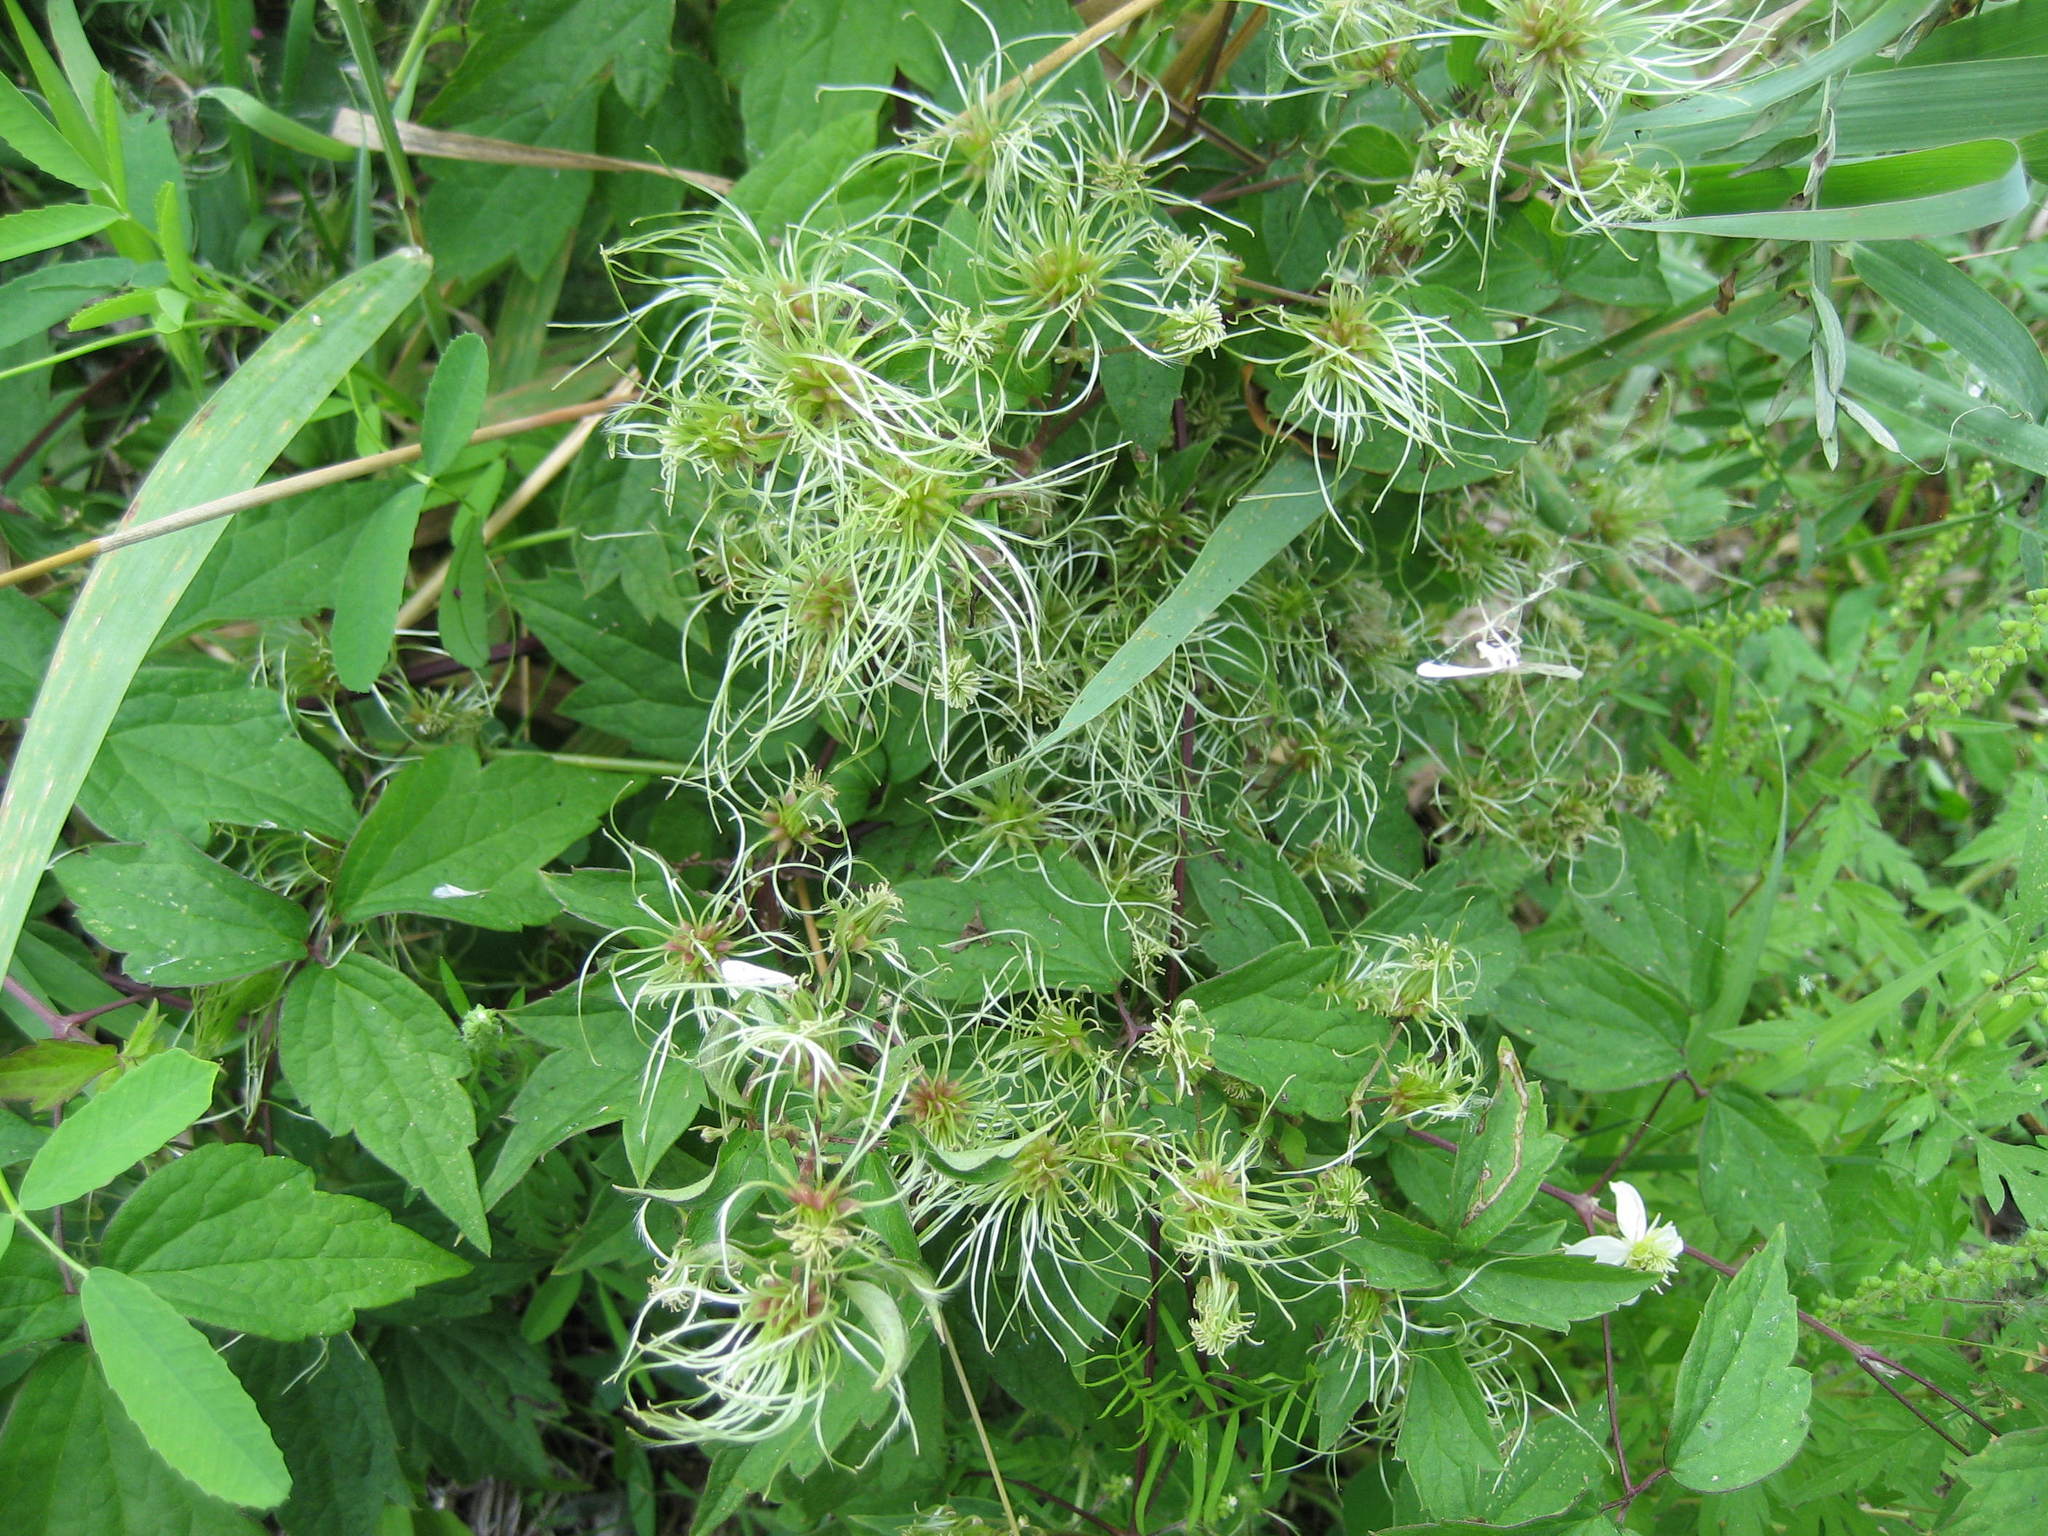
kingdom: Plantae
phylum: Tracheophyta
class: Magnoliopsida
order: Ranunculales
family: Ranunculaceae
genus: Clematis
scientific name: Clematis virginiana
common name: Virgin's-bower
